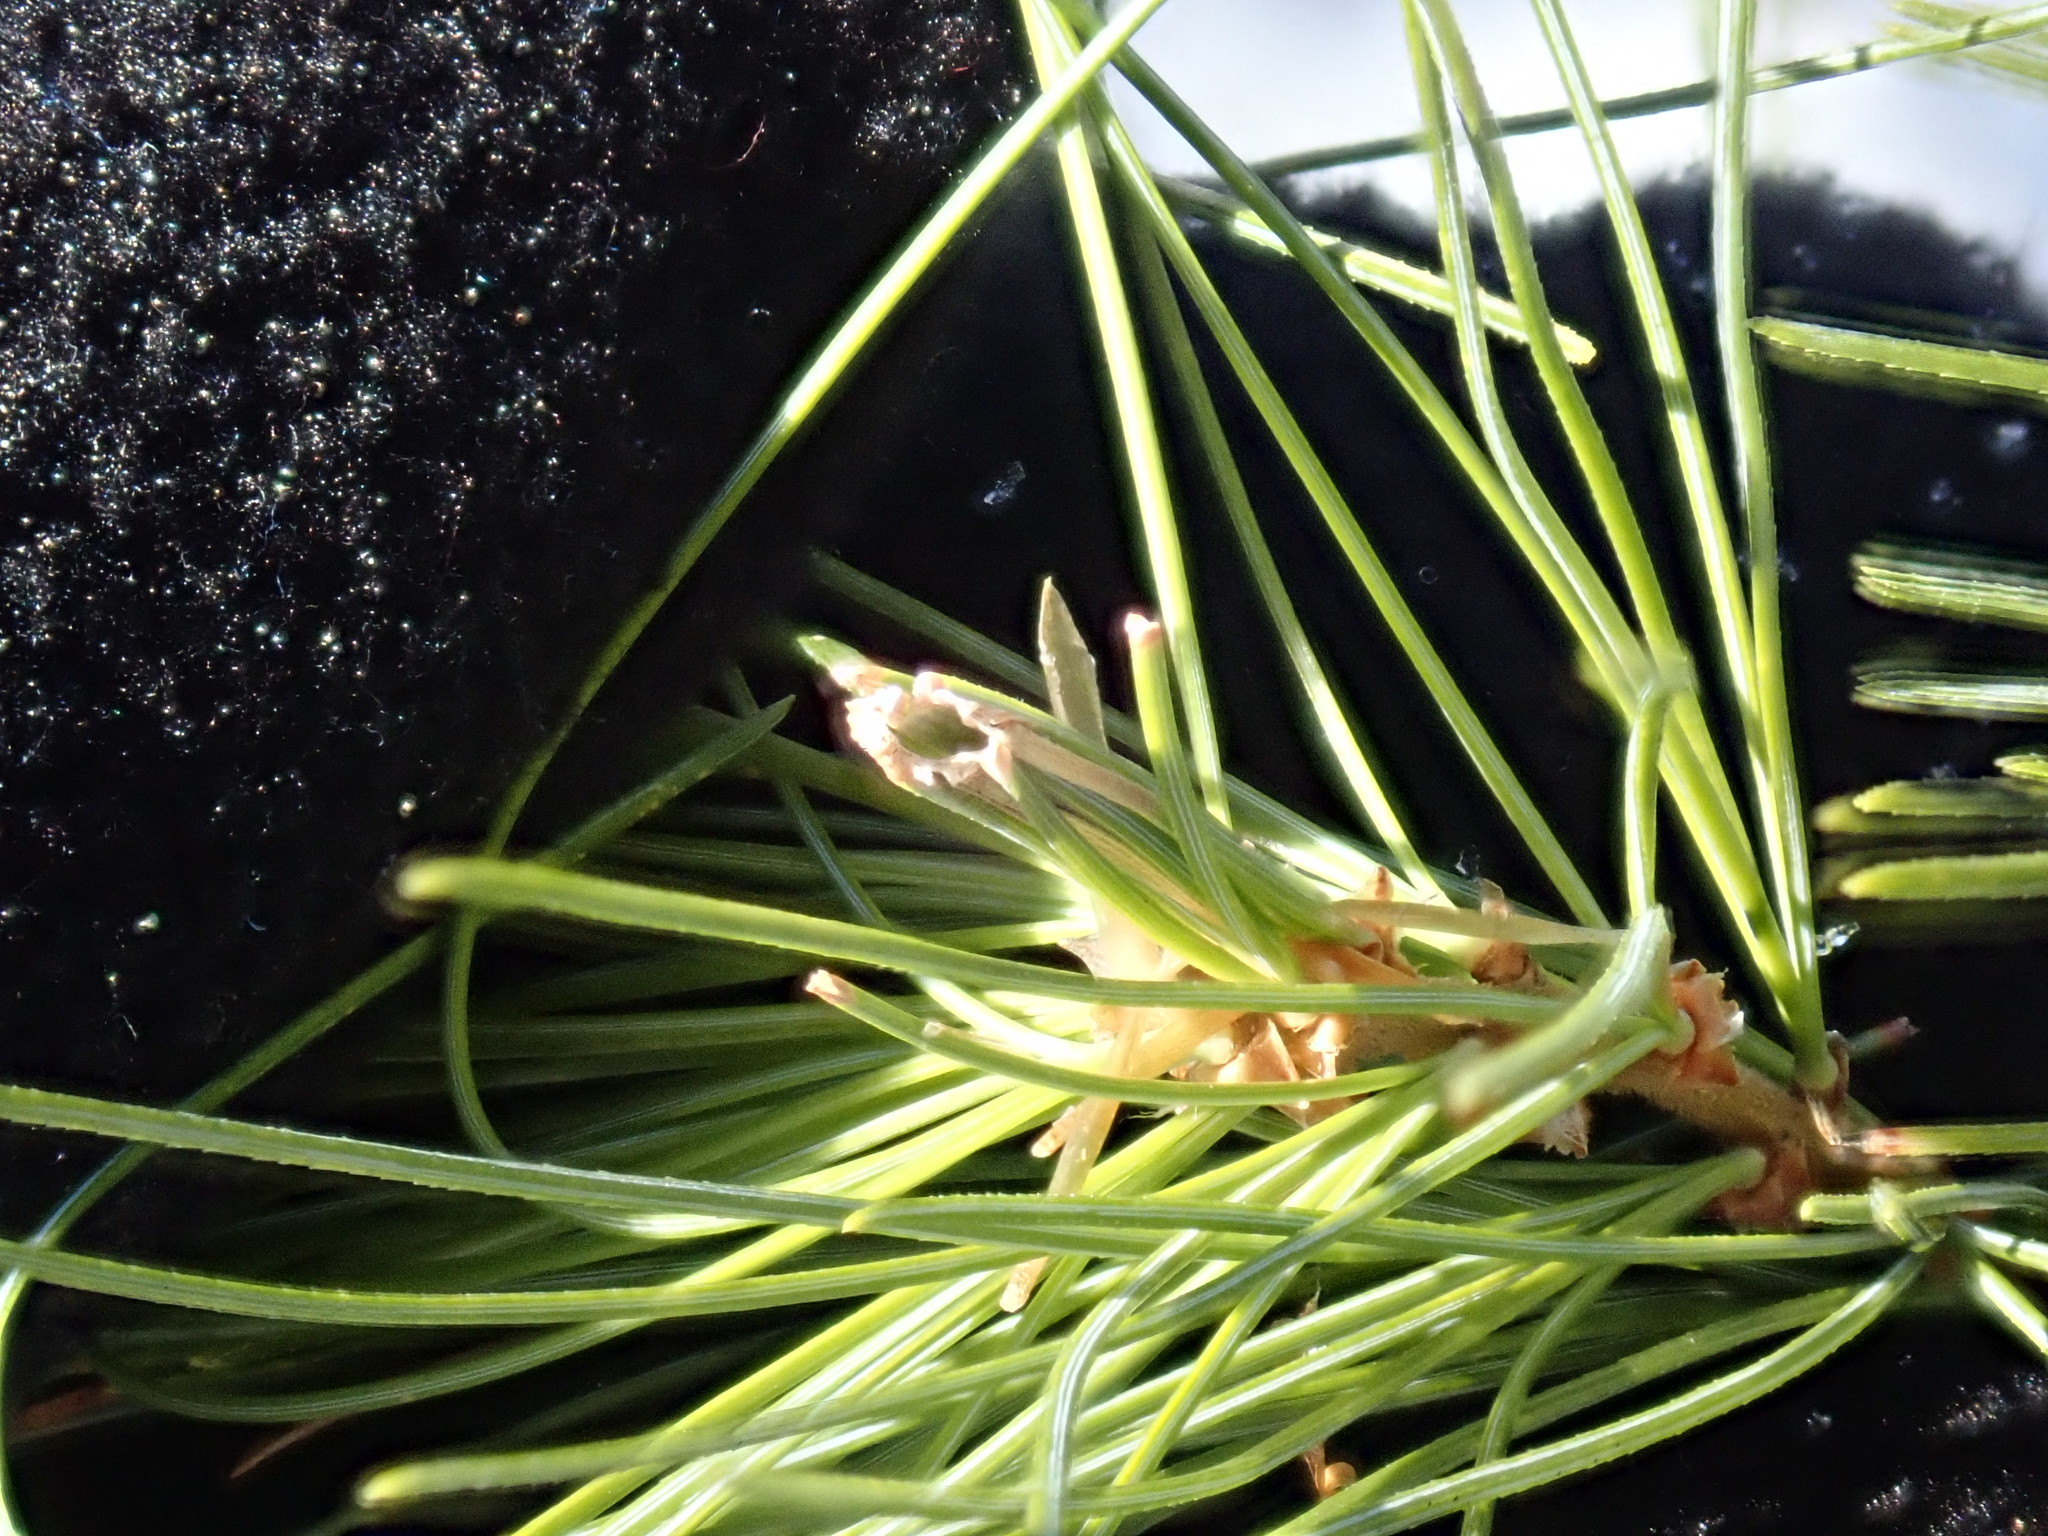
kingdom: Animalia
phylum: Arthropoda
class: Insecta
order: Lepidoptera
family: Tortricidae
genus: Argyrotaenia
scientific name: Argyrotaenia pinatubana
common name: Pine tube moth
